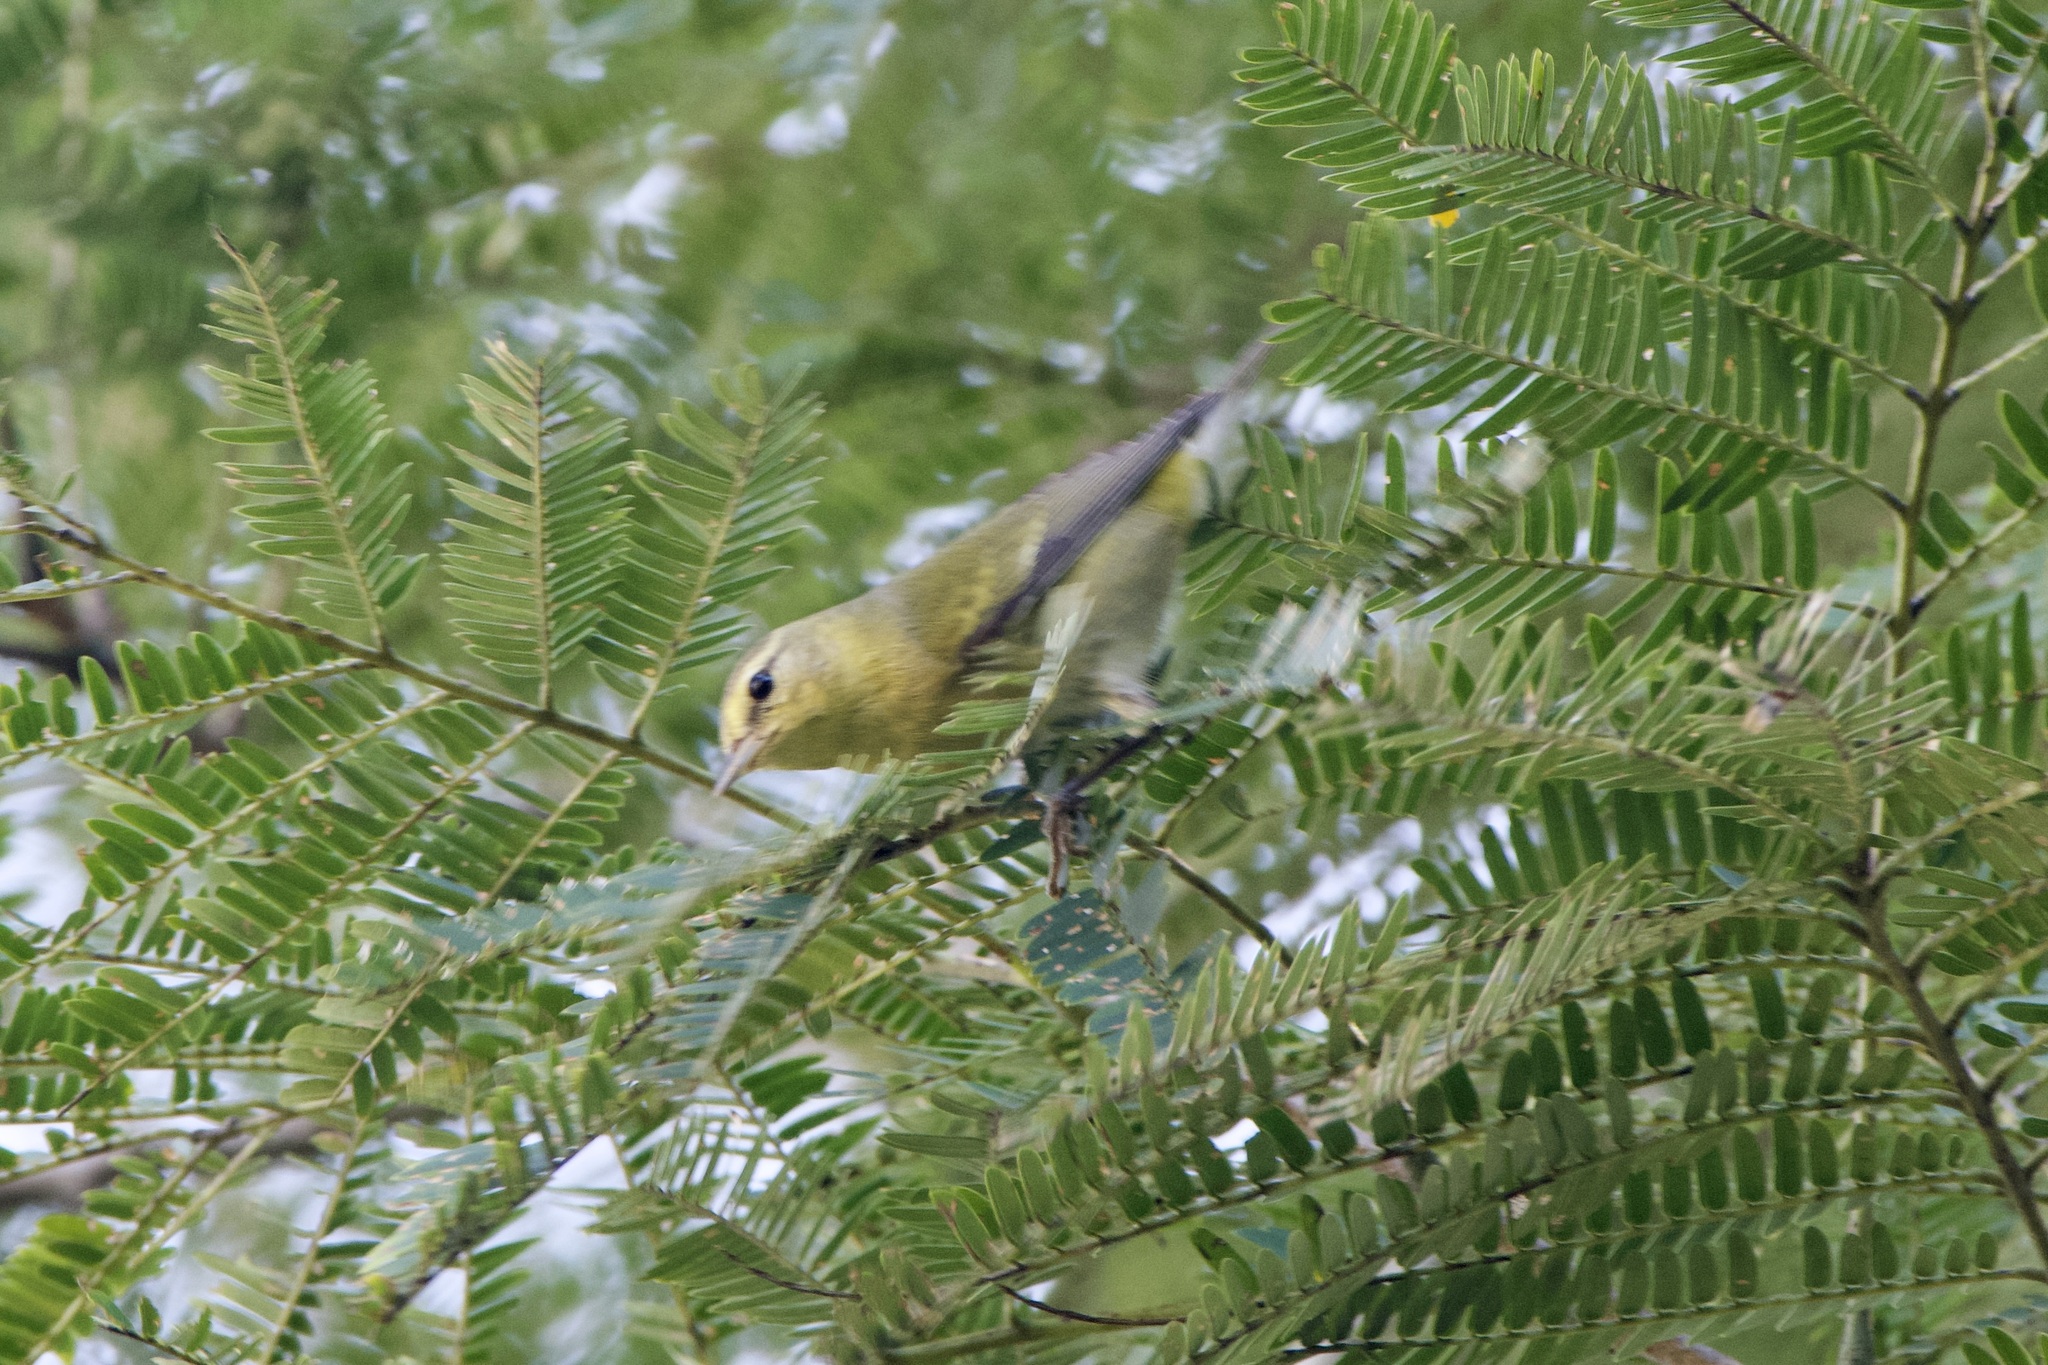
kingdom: Animalia
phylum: Chordata
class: Aves
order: Passeriformes
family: Parulidae
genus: Leiothlypis
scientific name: Leiothlypis peregrina
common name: Tennessee warbler
